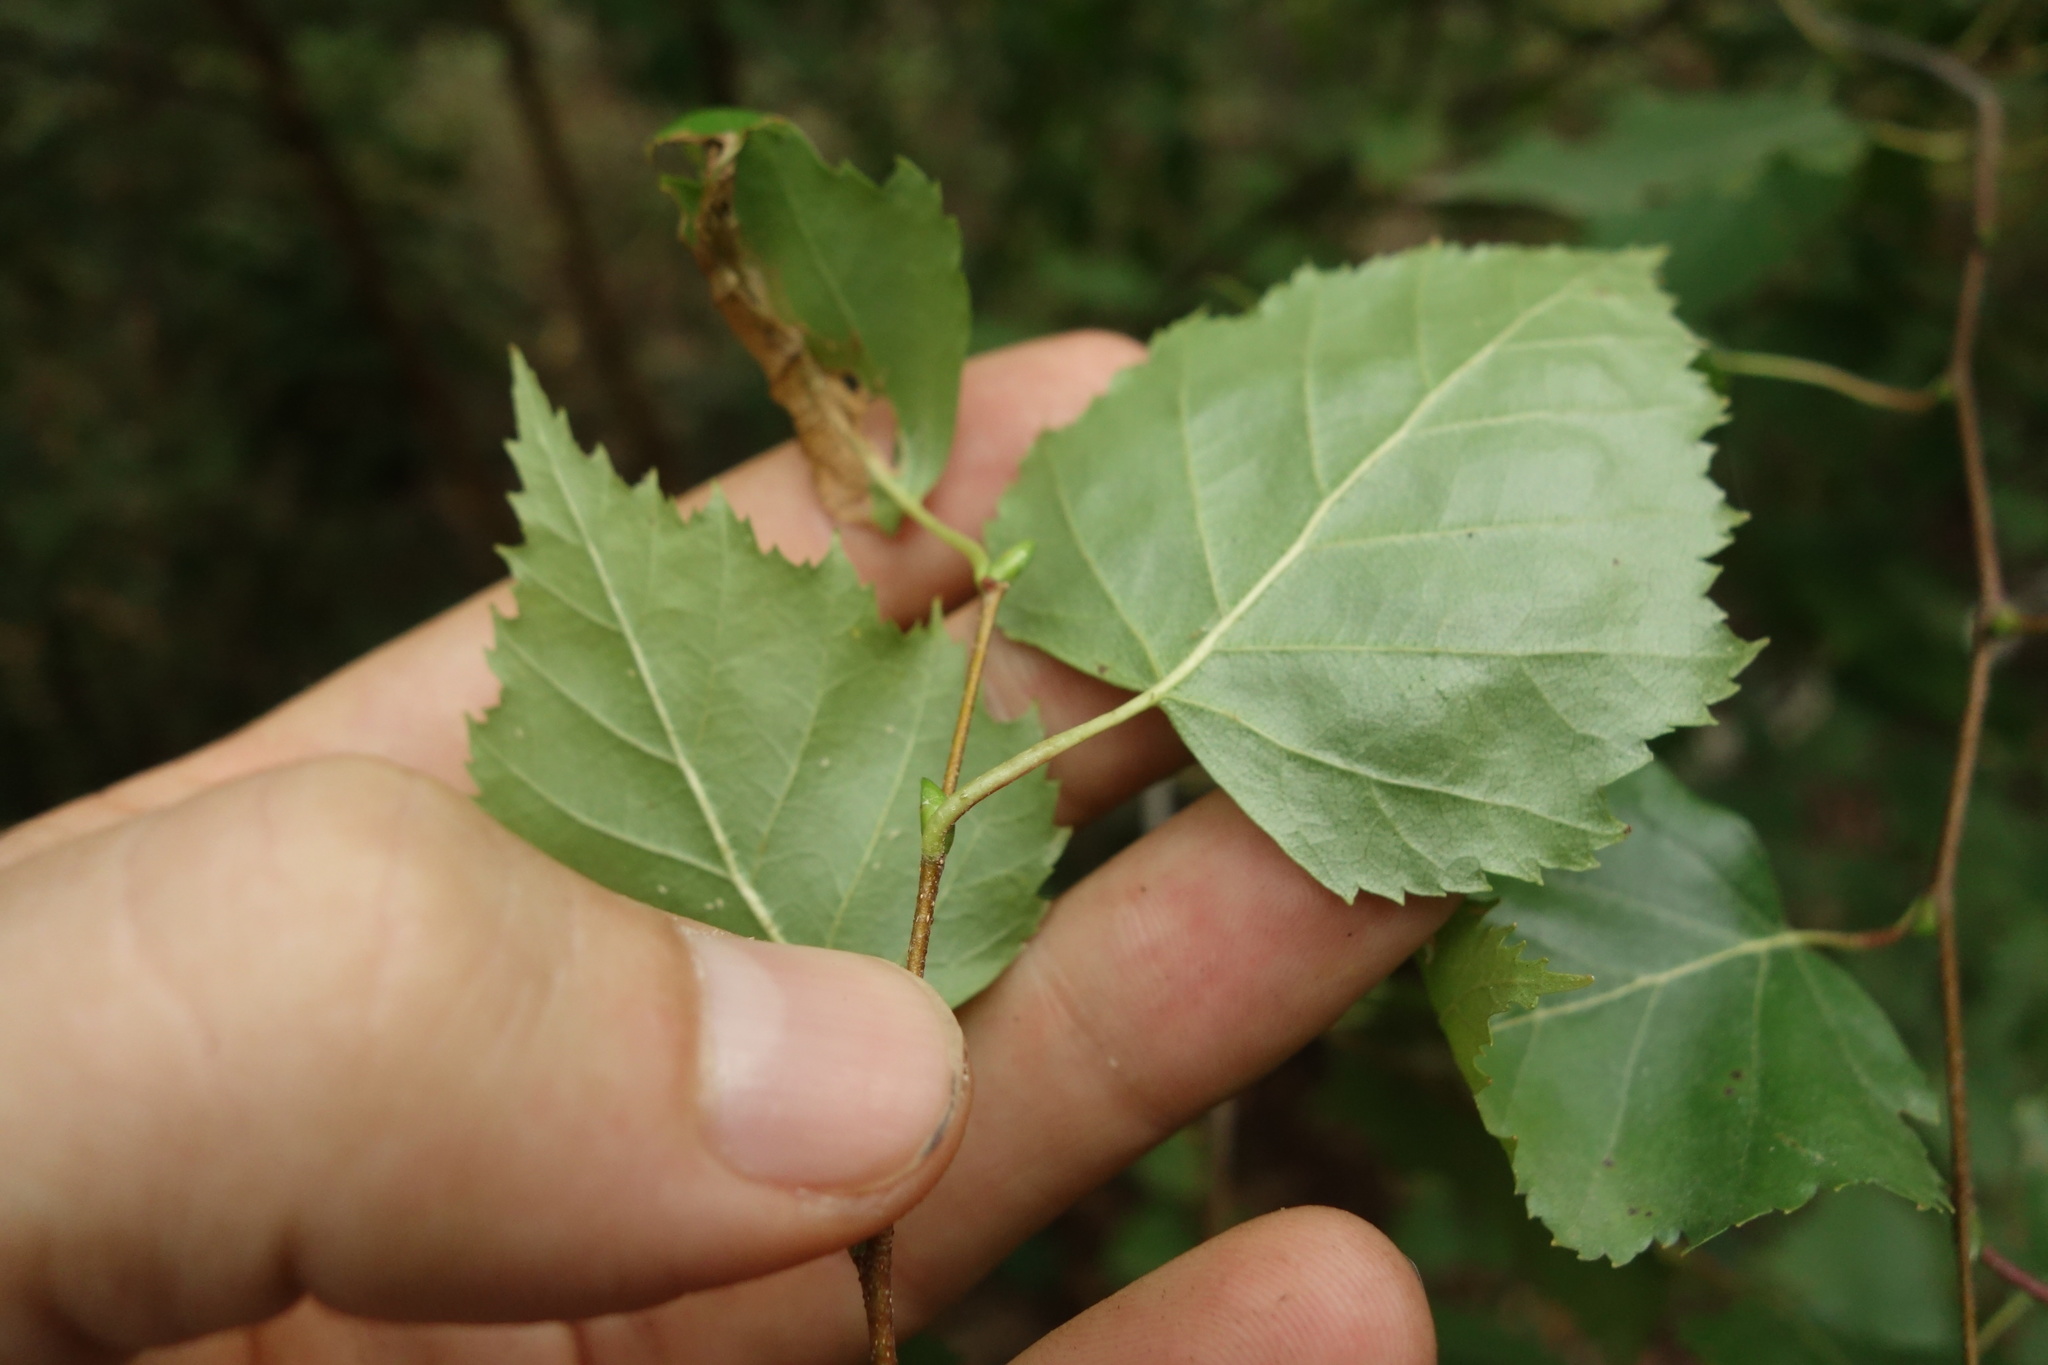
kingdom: Plantae
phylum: Tracheophyta
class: Magnoliopsida
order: Fagales
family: Betulaceae
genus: Betula
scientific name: Betula pendula
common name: Silver birch
